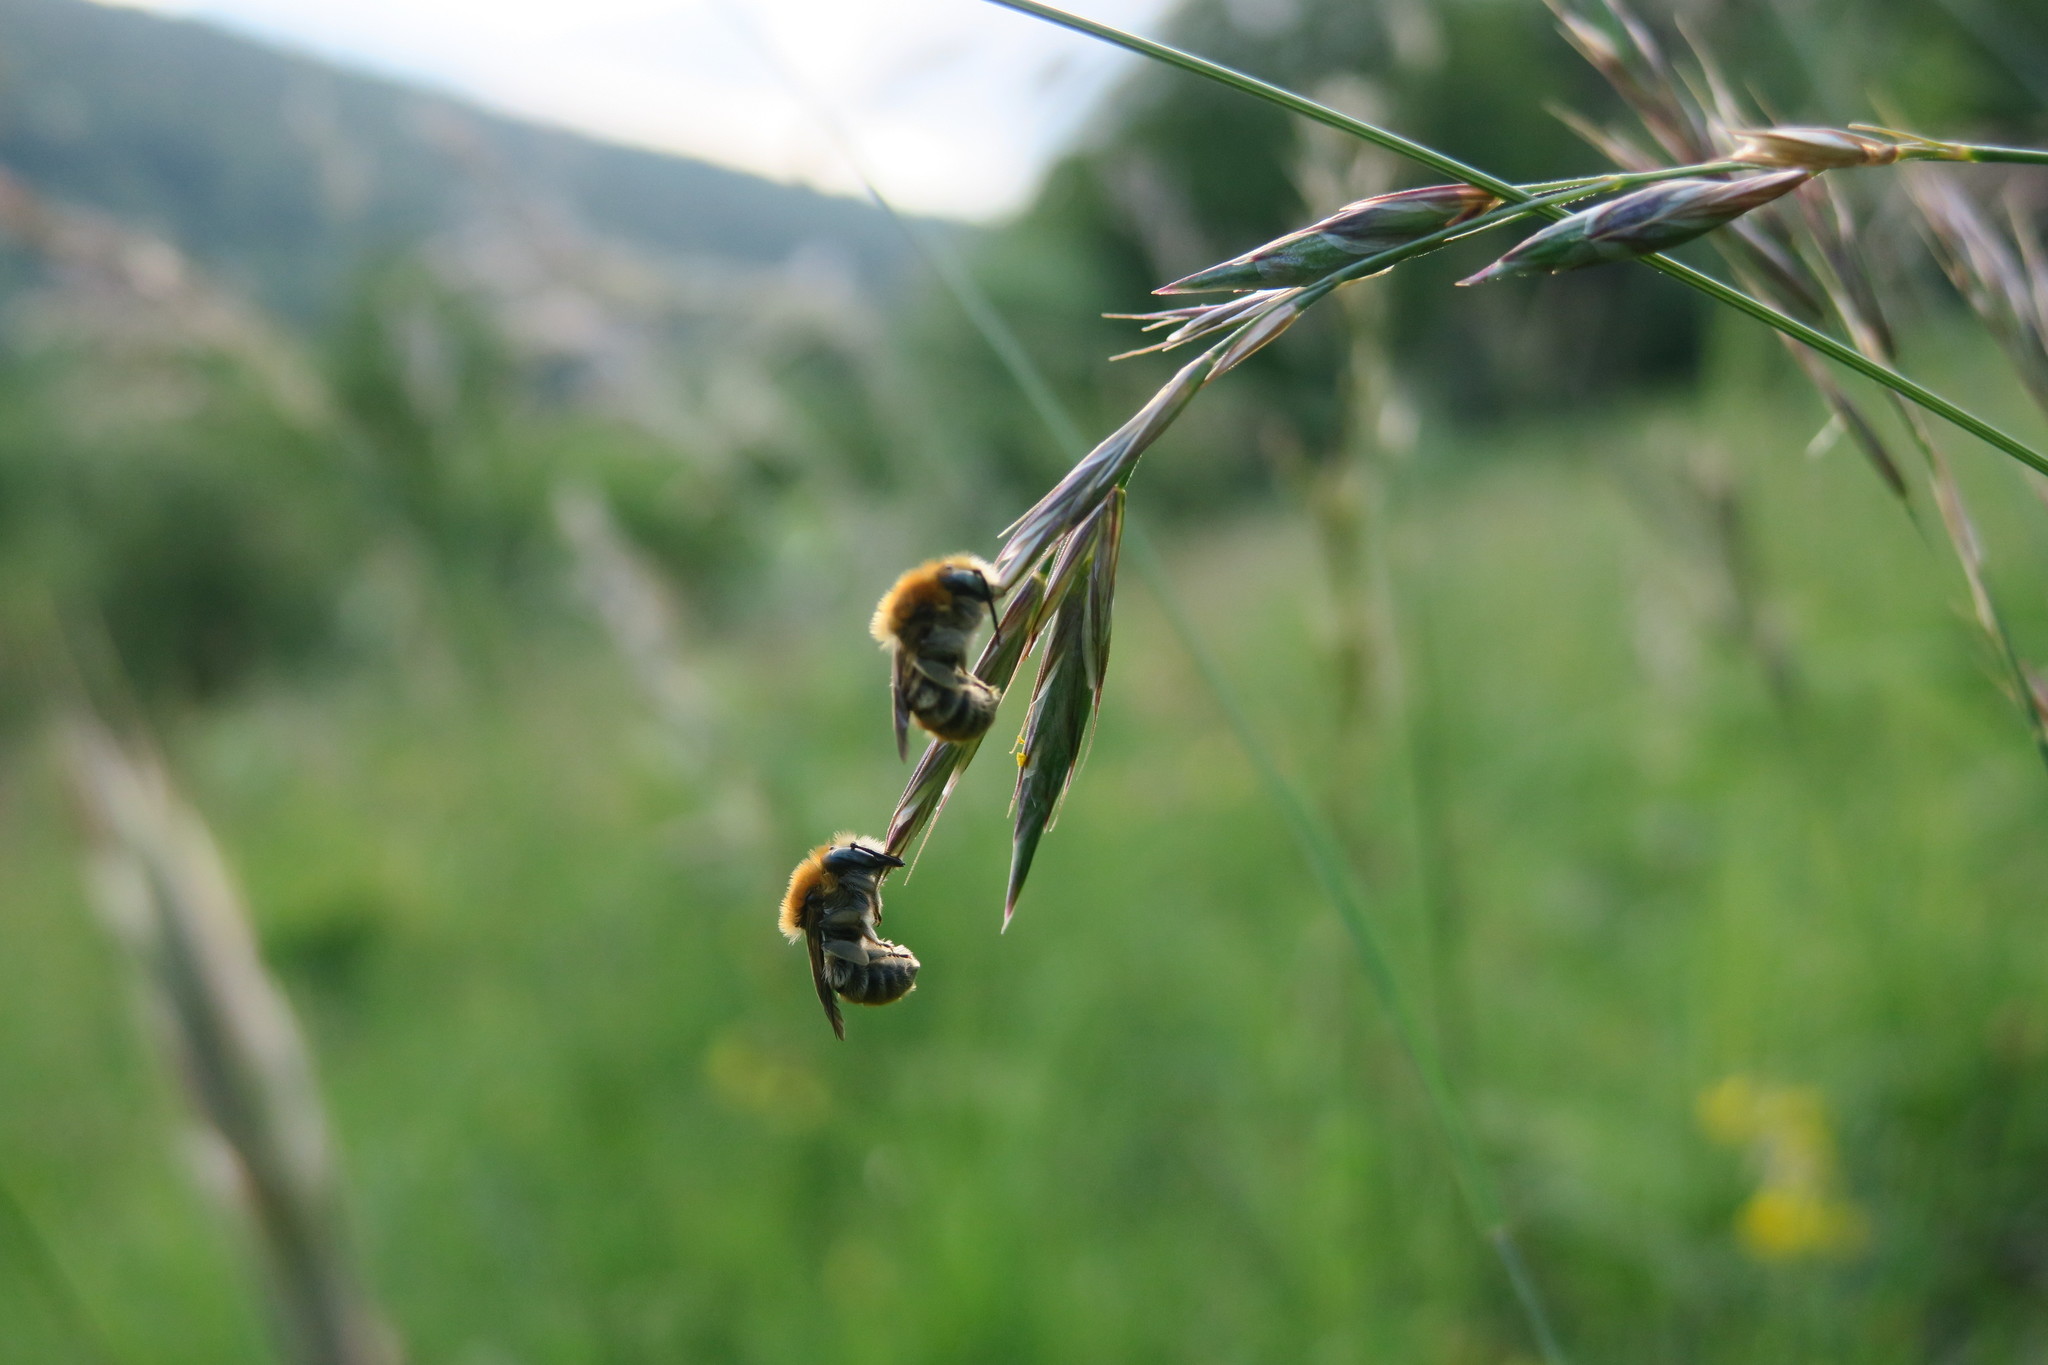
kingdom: Animalia
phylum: Arthropoda
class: Insecta
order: Hymenoptera
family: Megachilidae
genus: Trachusa
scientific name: Trachusa byssina
